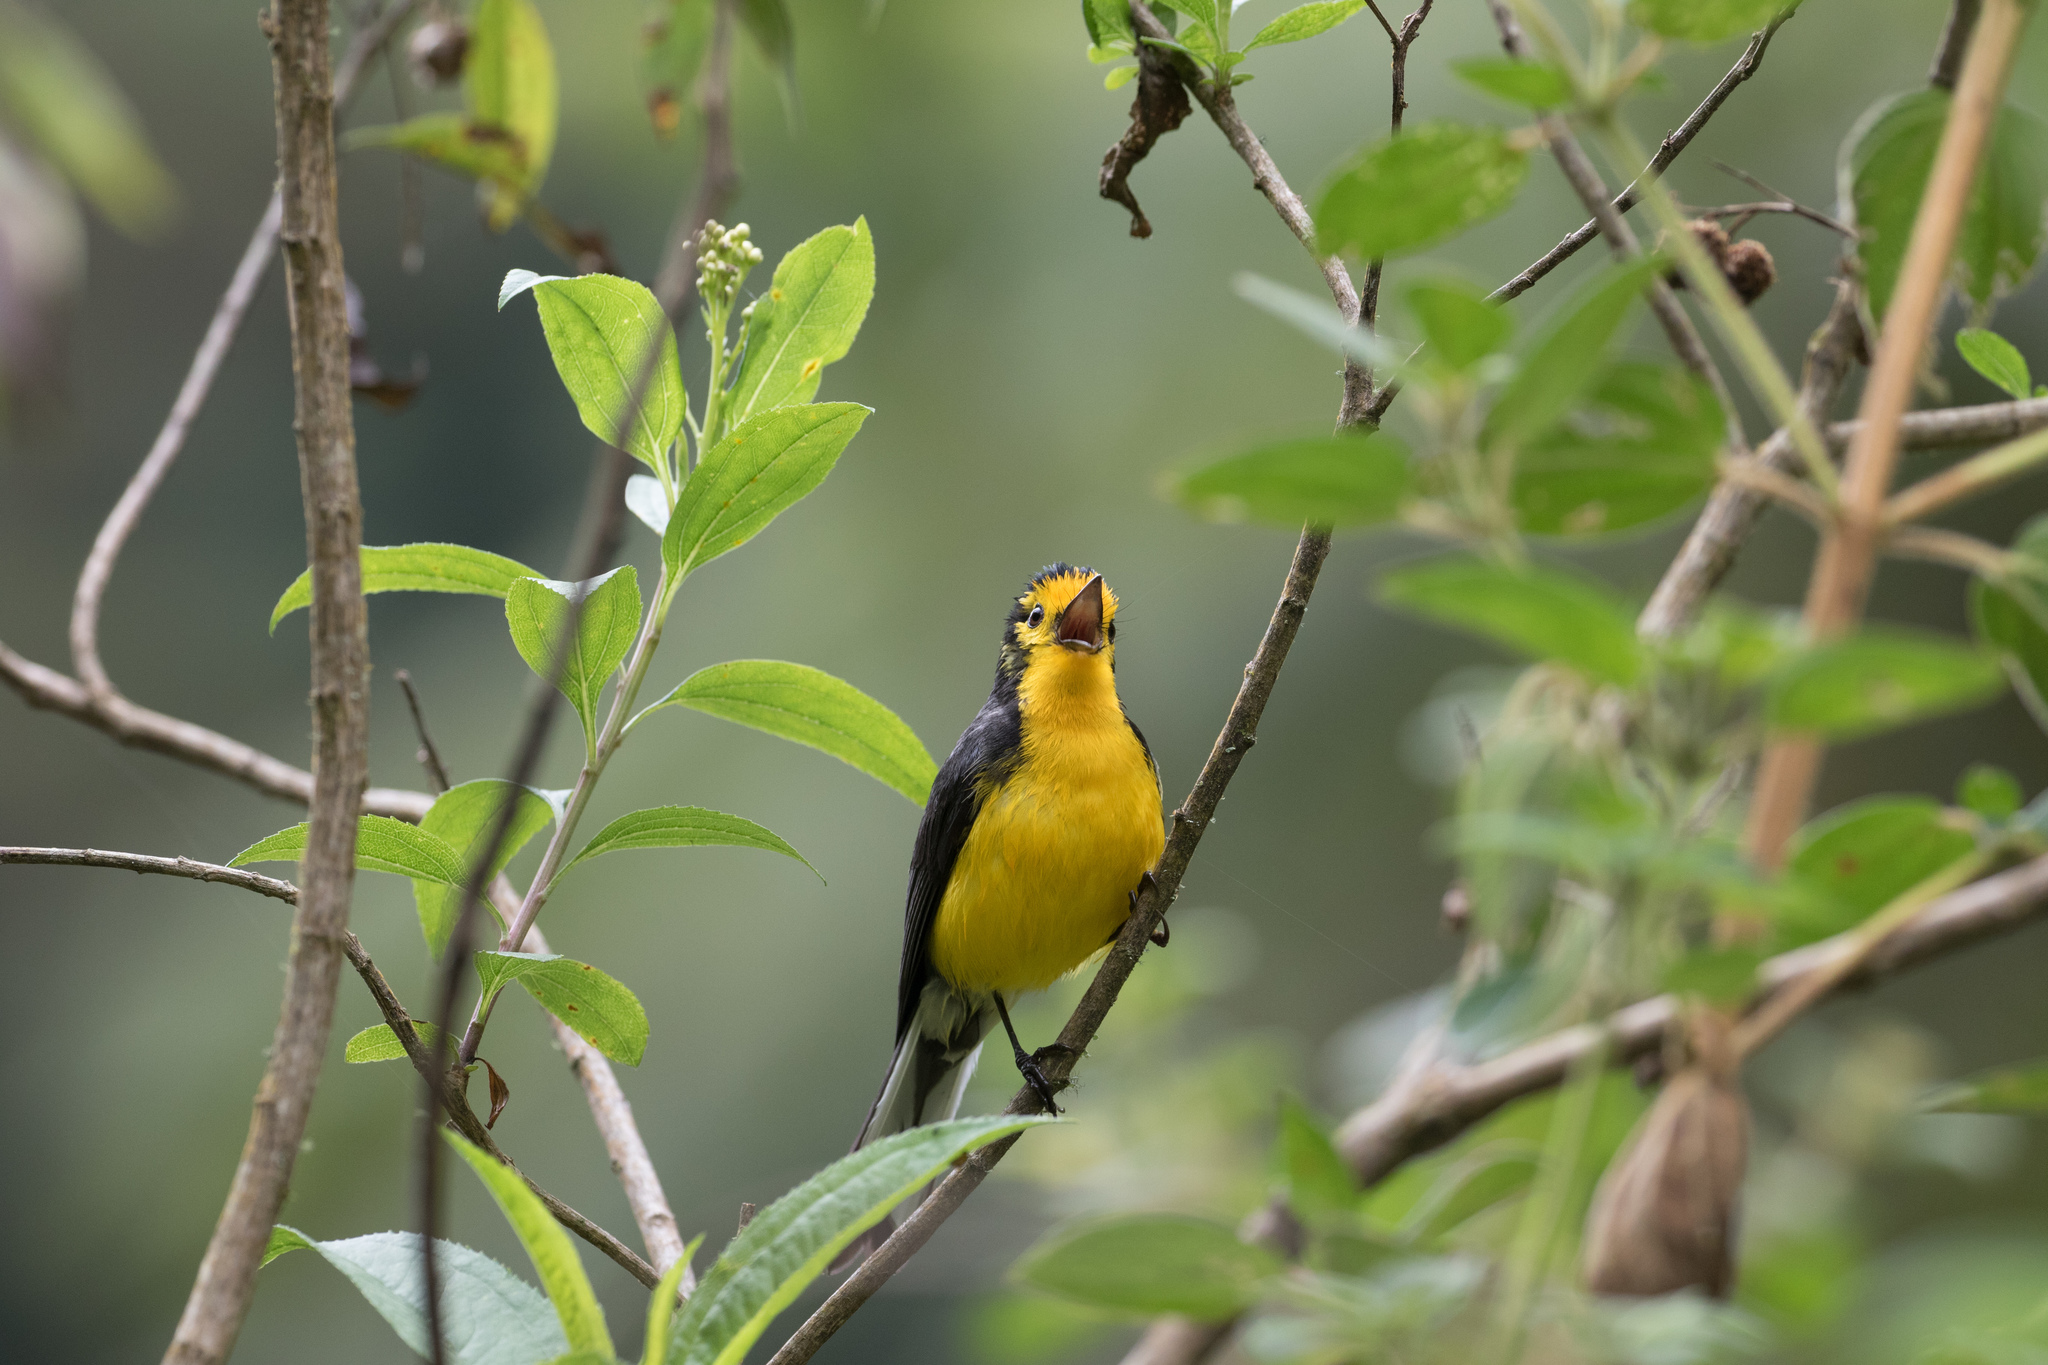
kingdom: Animalia
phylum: Chordata
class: Aves
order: Passeriformes
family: Parulidae
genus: Myioborus
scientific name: Myioborus ornatus
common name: Golden-fronted whitestart
